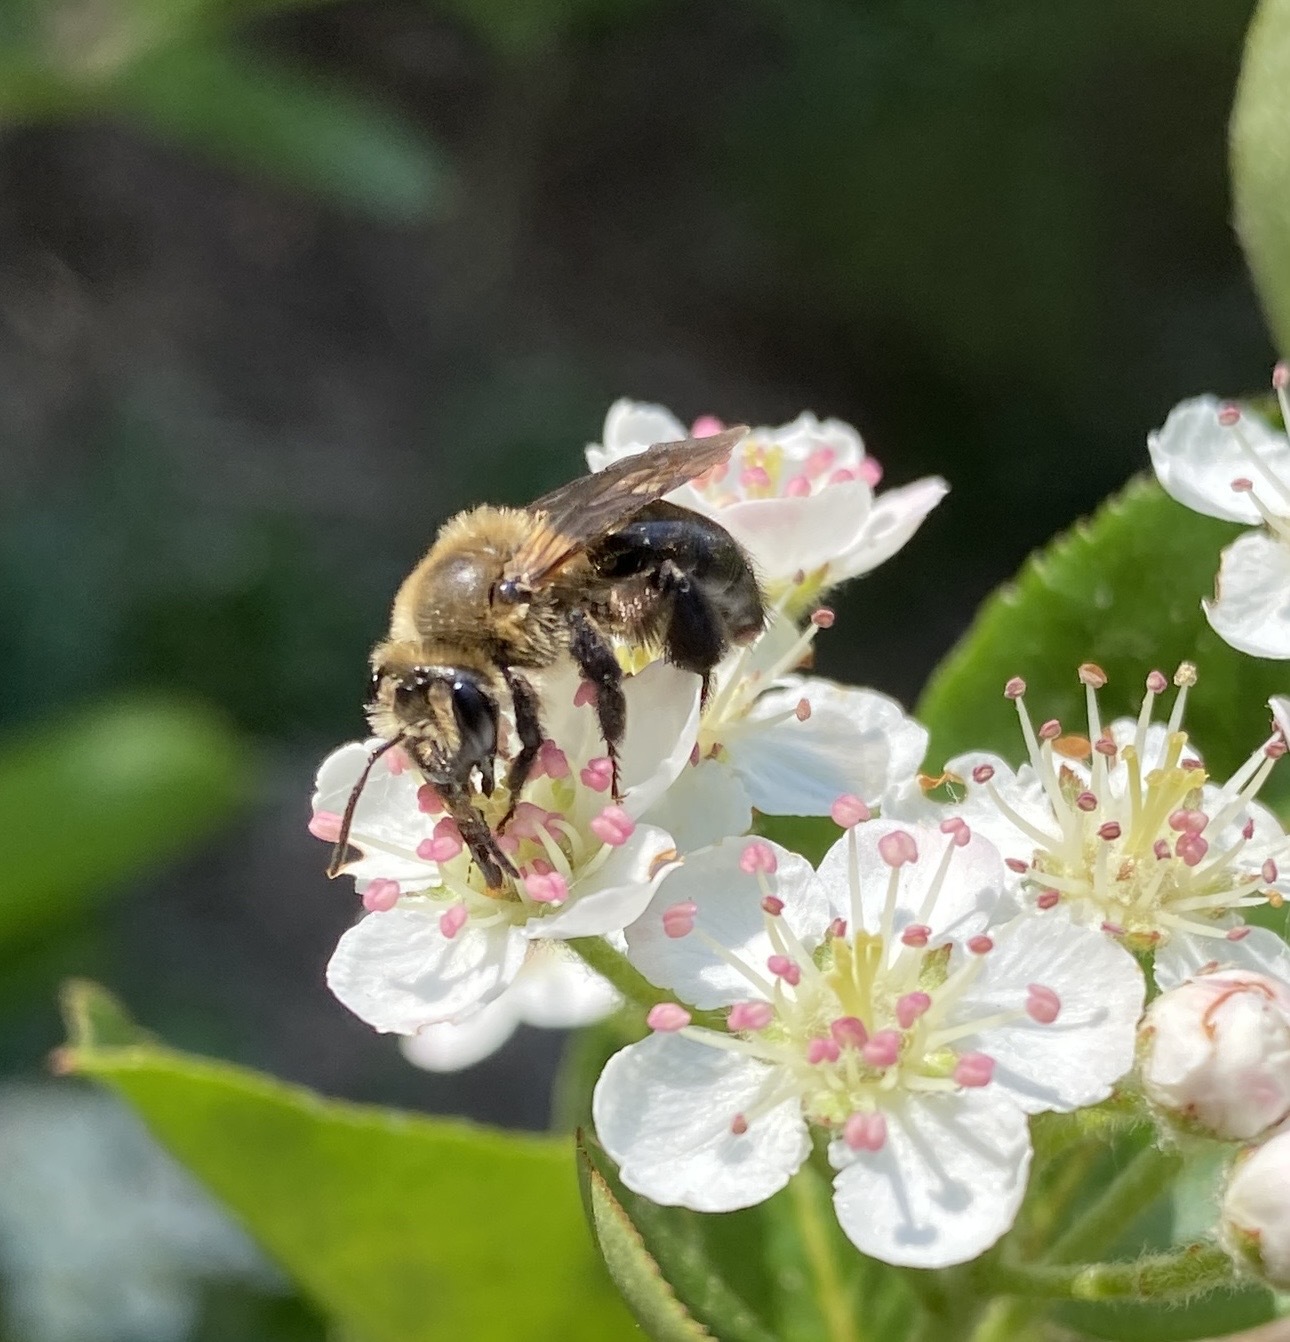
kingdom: Animalia
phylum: Arthropoda
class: Insecta
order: Hymenoptera
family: Andrenidae
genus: Andrena
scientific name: Andrena vicina
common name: Neighborly mining bee
